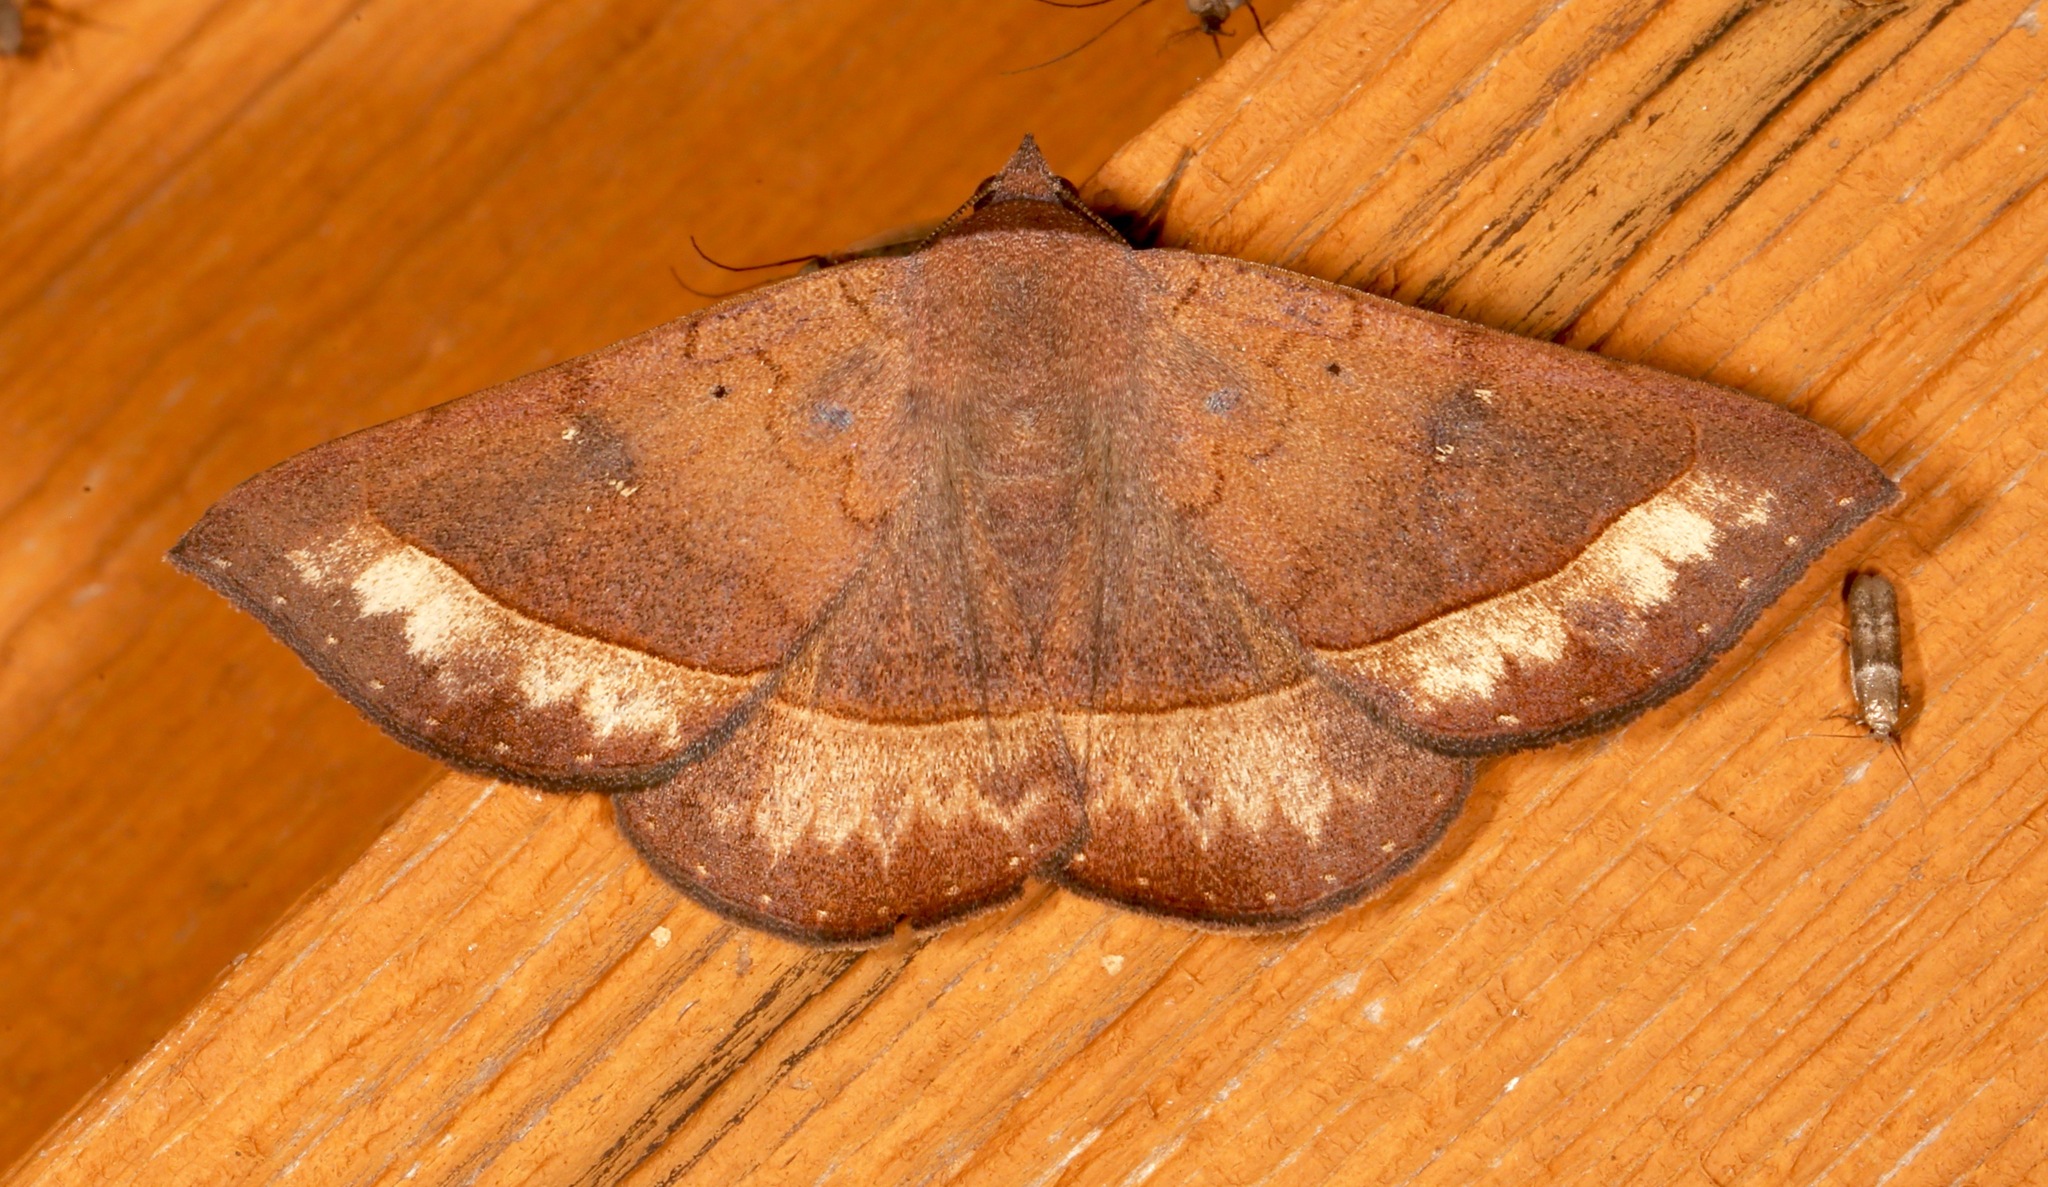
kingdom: Animalia
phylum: Arthropoda
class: Insecta
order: Lepidoptera
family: Erebidae
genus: Epidromia
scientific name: Epidromia rotundata
